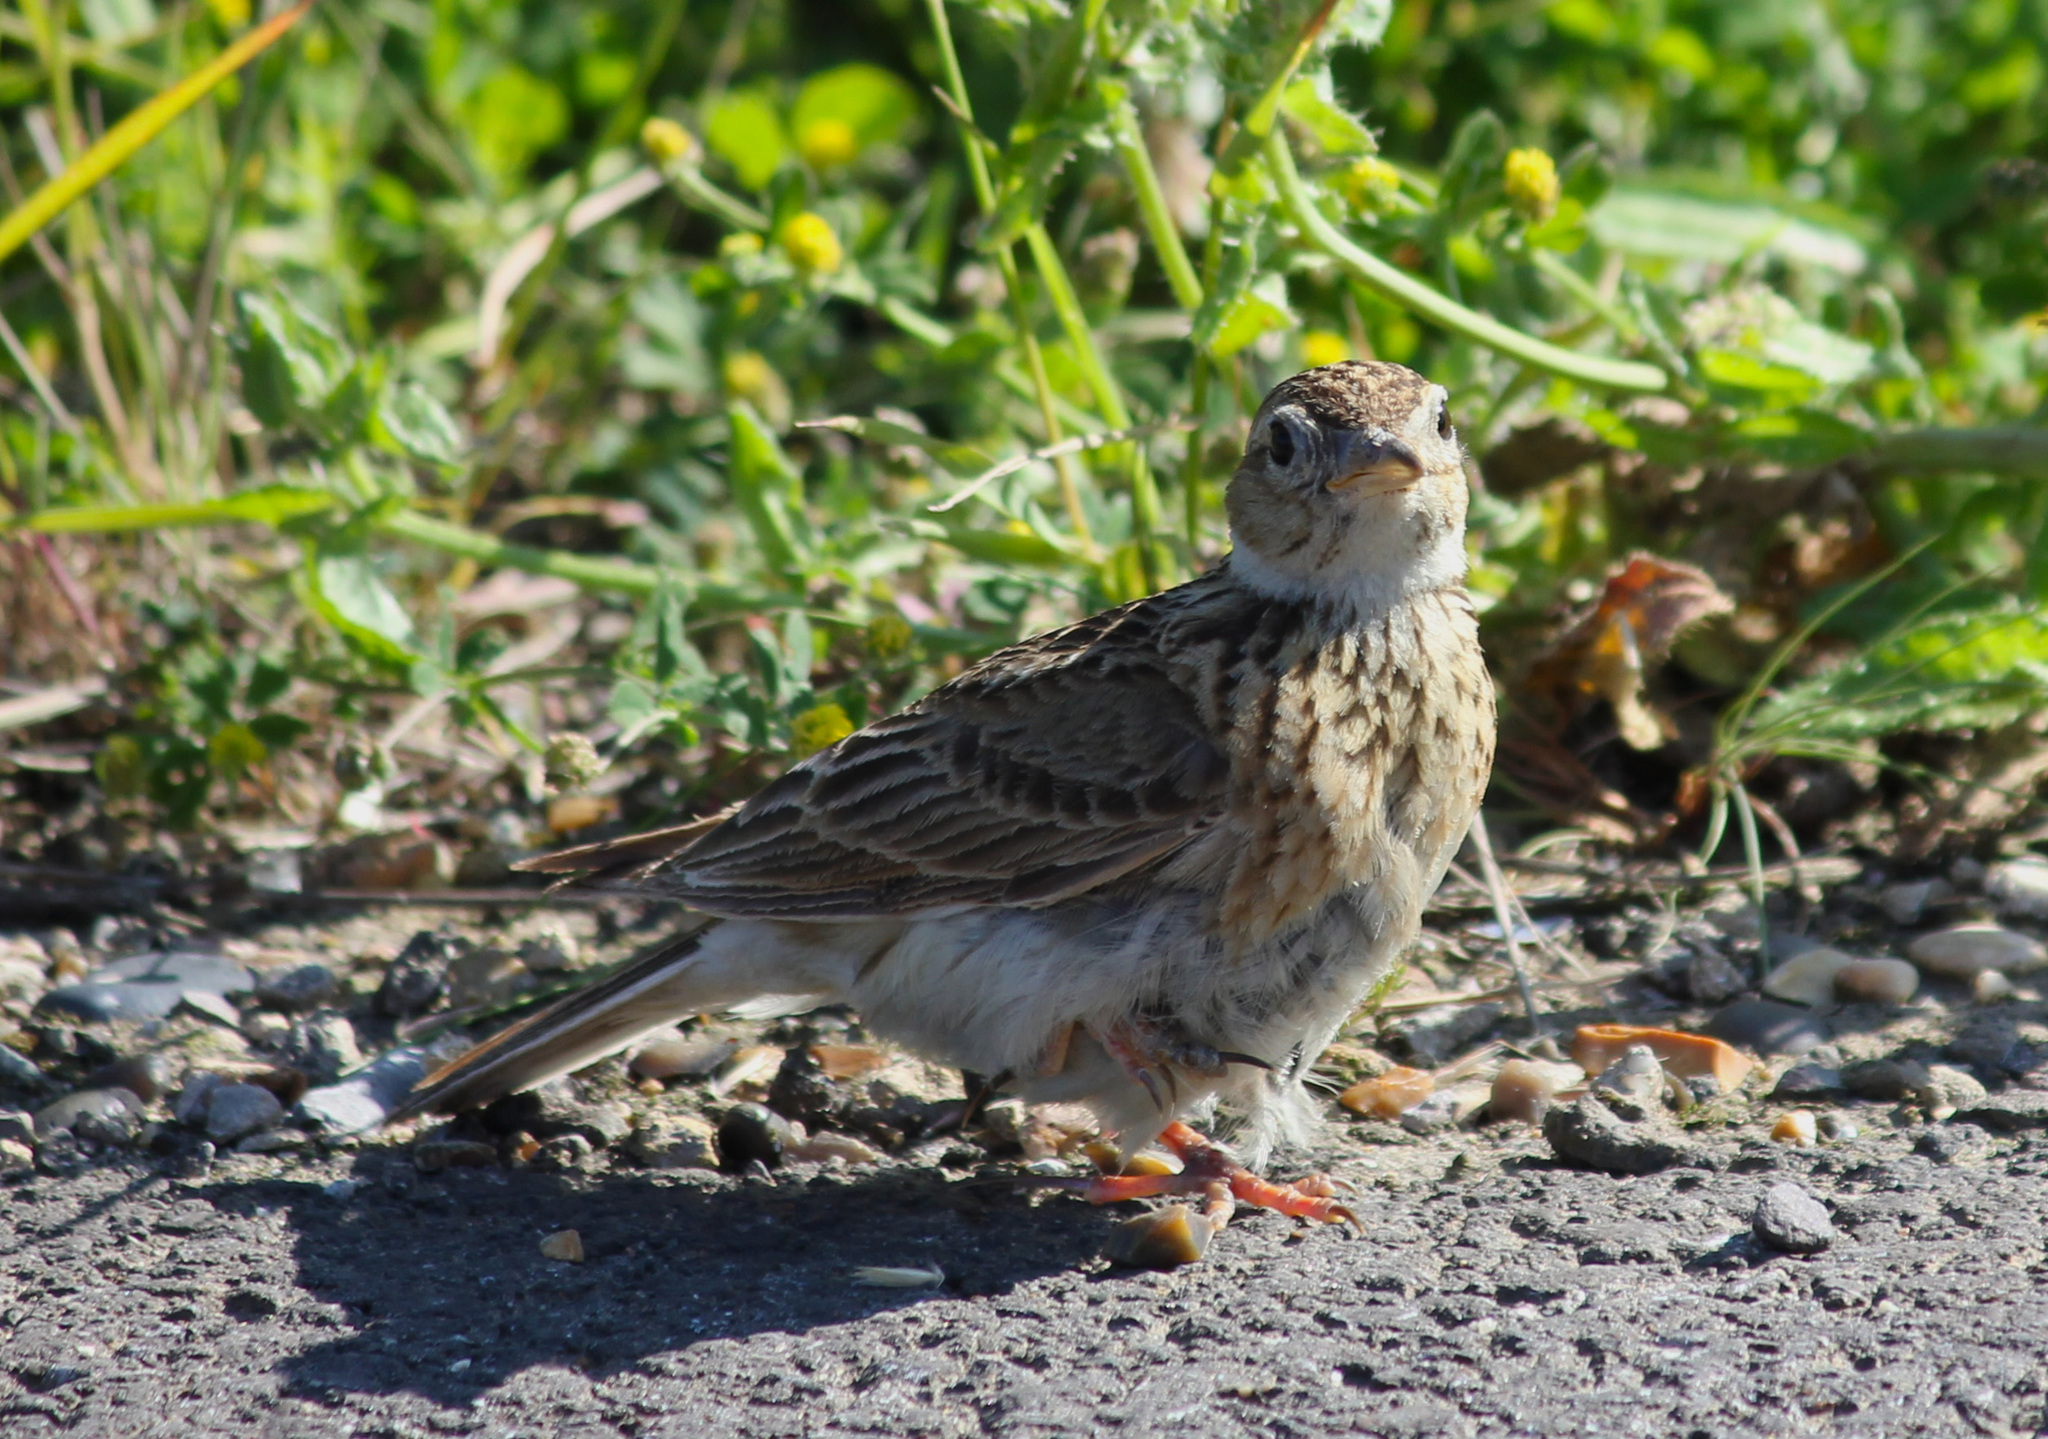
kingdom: Animalia
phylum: Chordata
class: Aves
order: Passeriformes
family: Alaudidae
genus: Alauda
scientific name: Alauda arvensis
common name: Eurasian skylark
